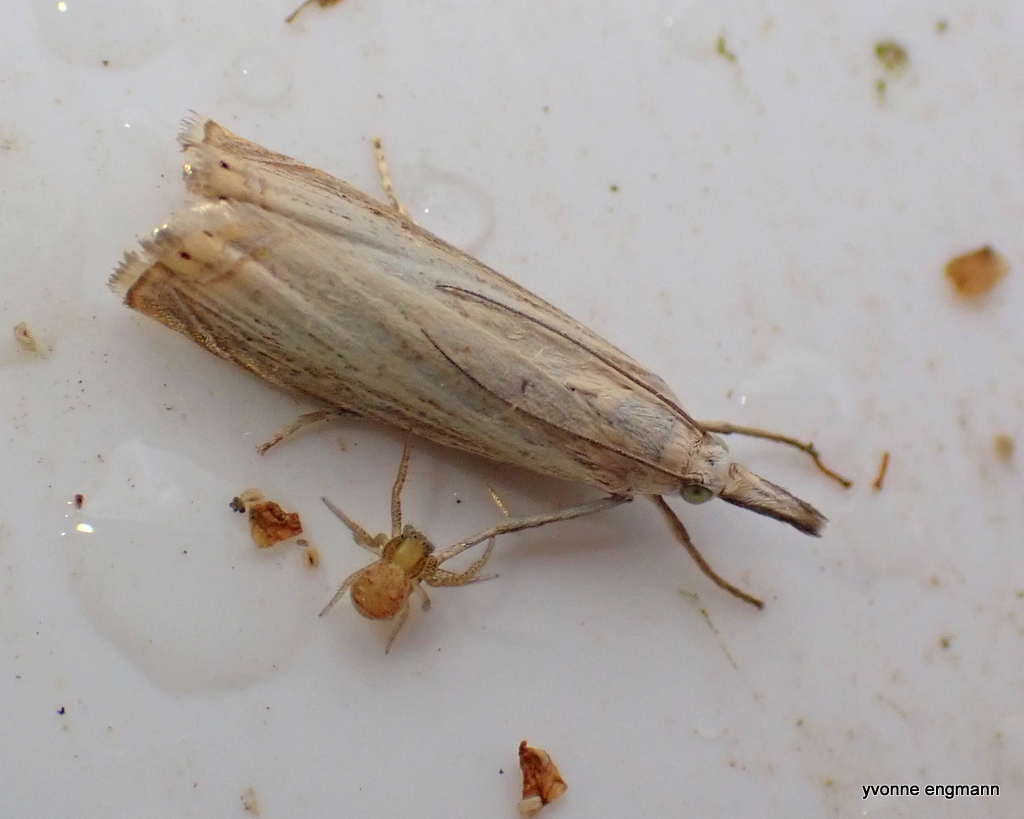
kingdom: Animalia
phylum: Arthropoda
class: Insecta
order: Lepidoptera
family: Crambidae
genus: Chrysoteuchia
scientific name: Chrysoteuchia culmella
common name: Garden grass-veneer
